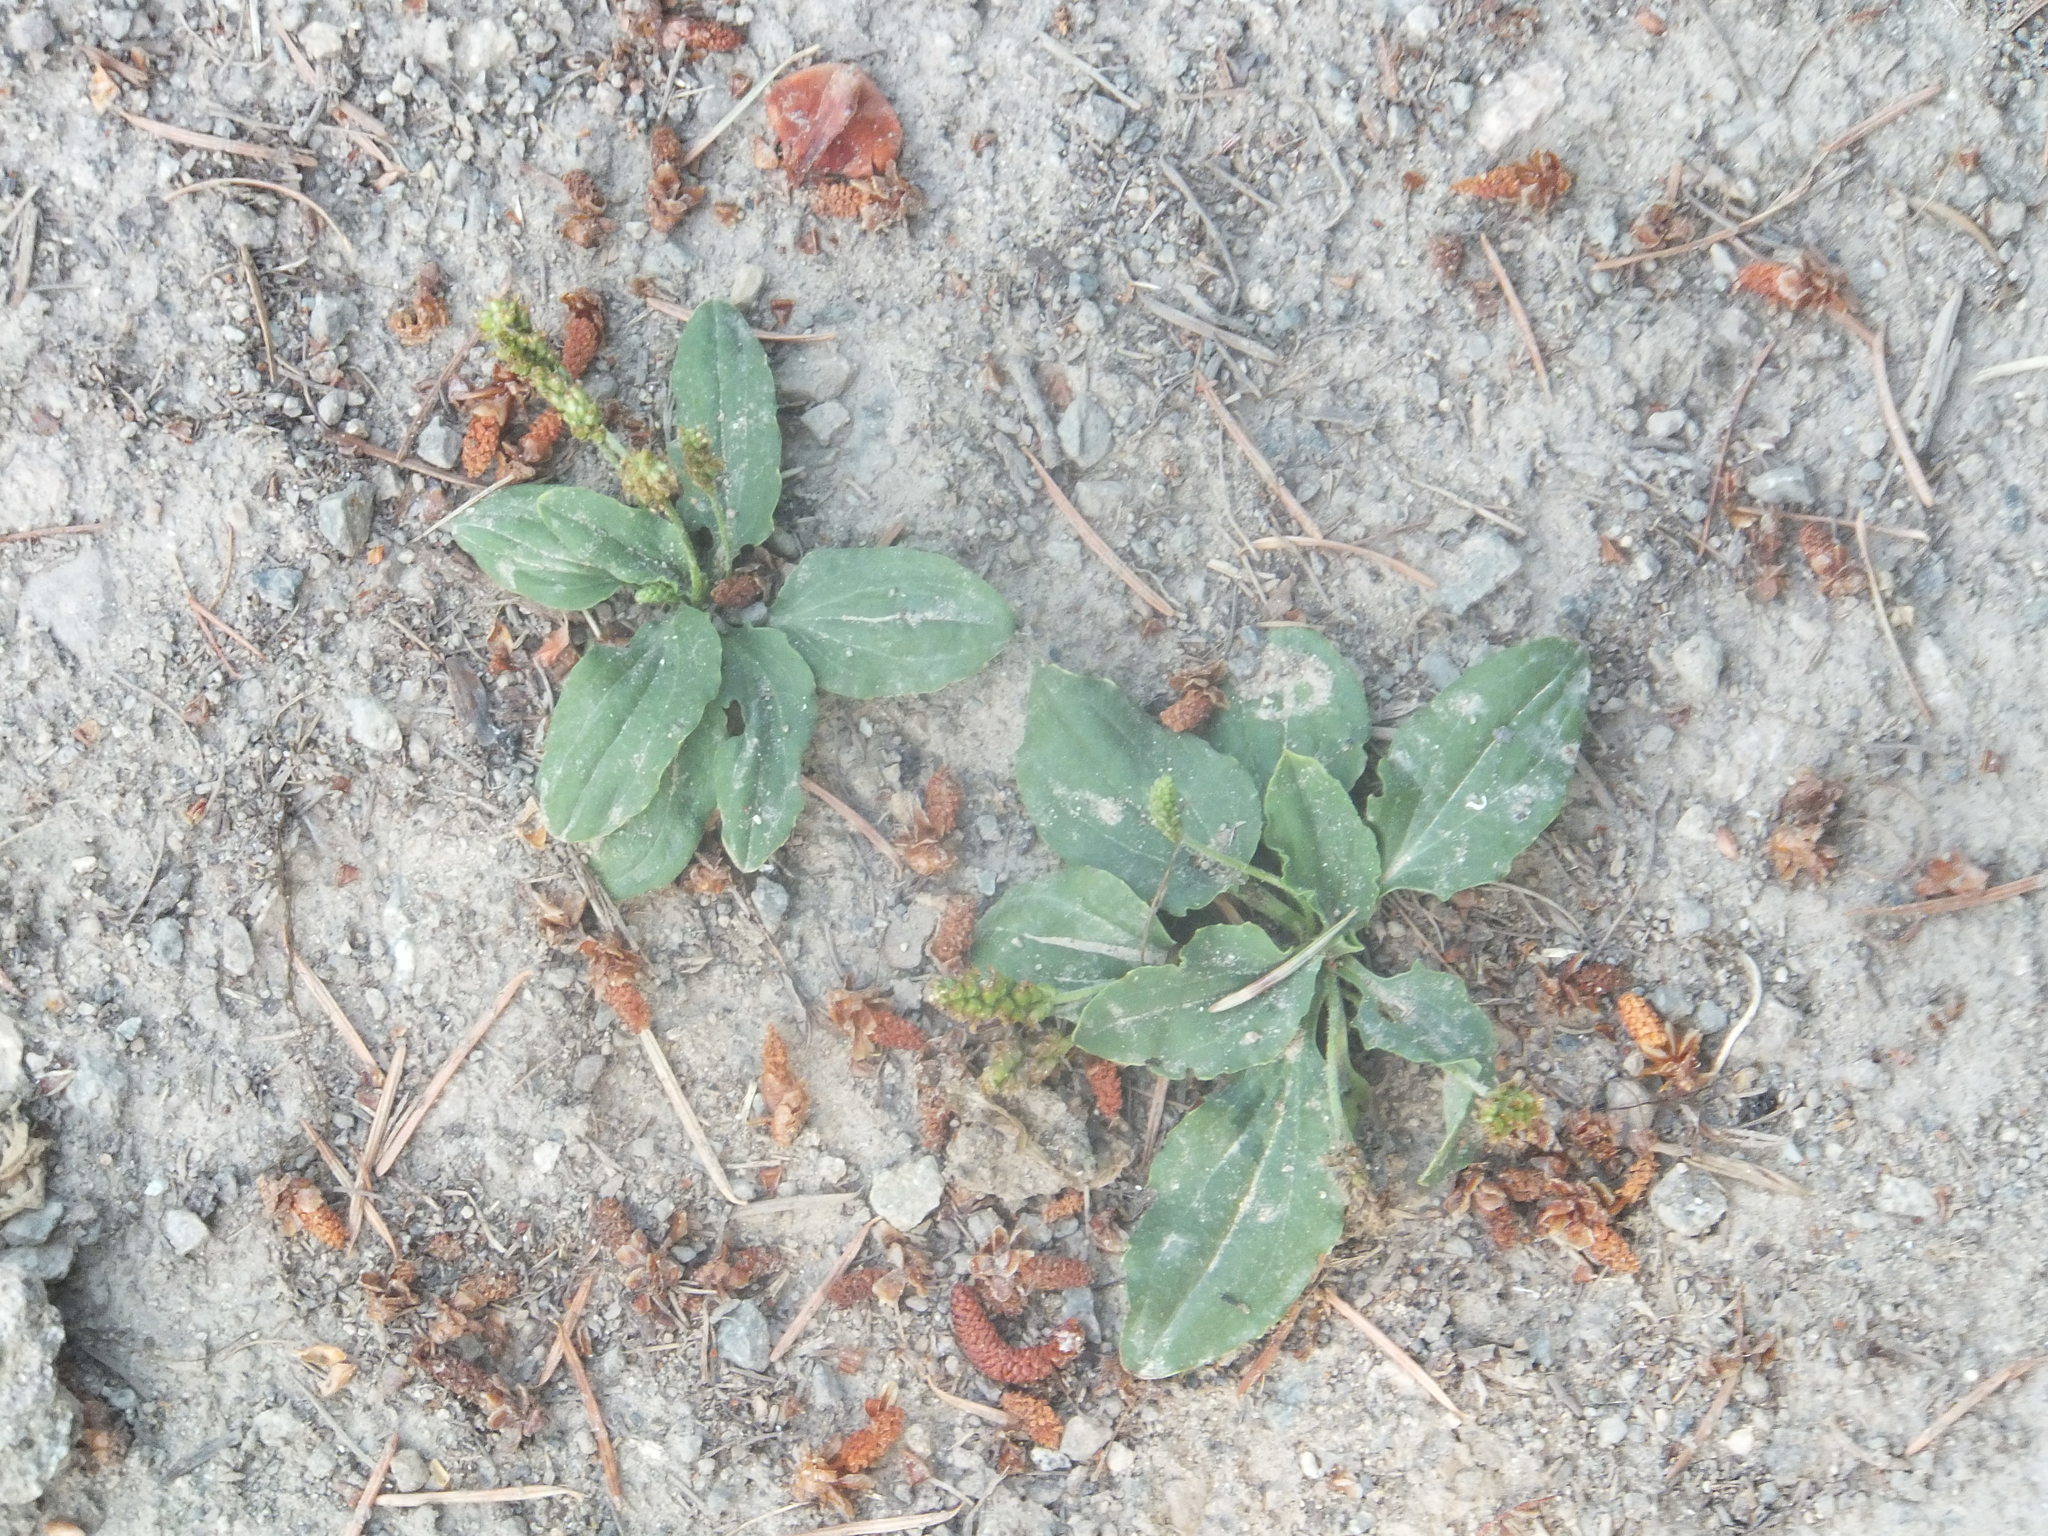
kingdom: Plantae
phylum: Tracheophyta
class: Magnoliopsida
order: Lamiales
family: Plantaginaceae
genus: Plantago
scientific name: Plantago major
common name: Common plantain
